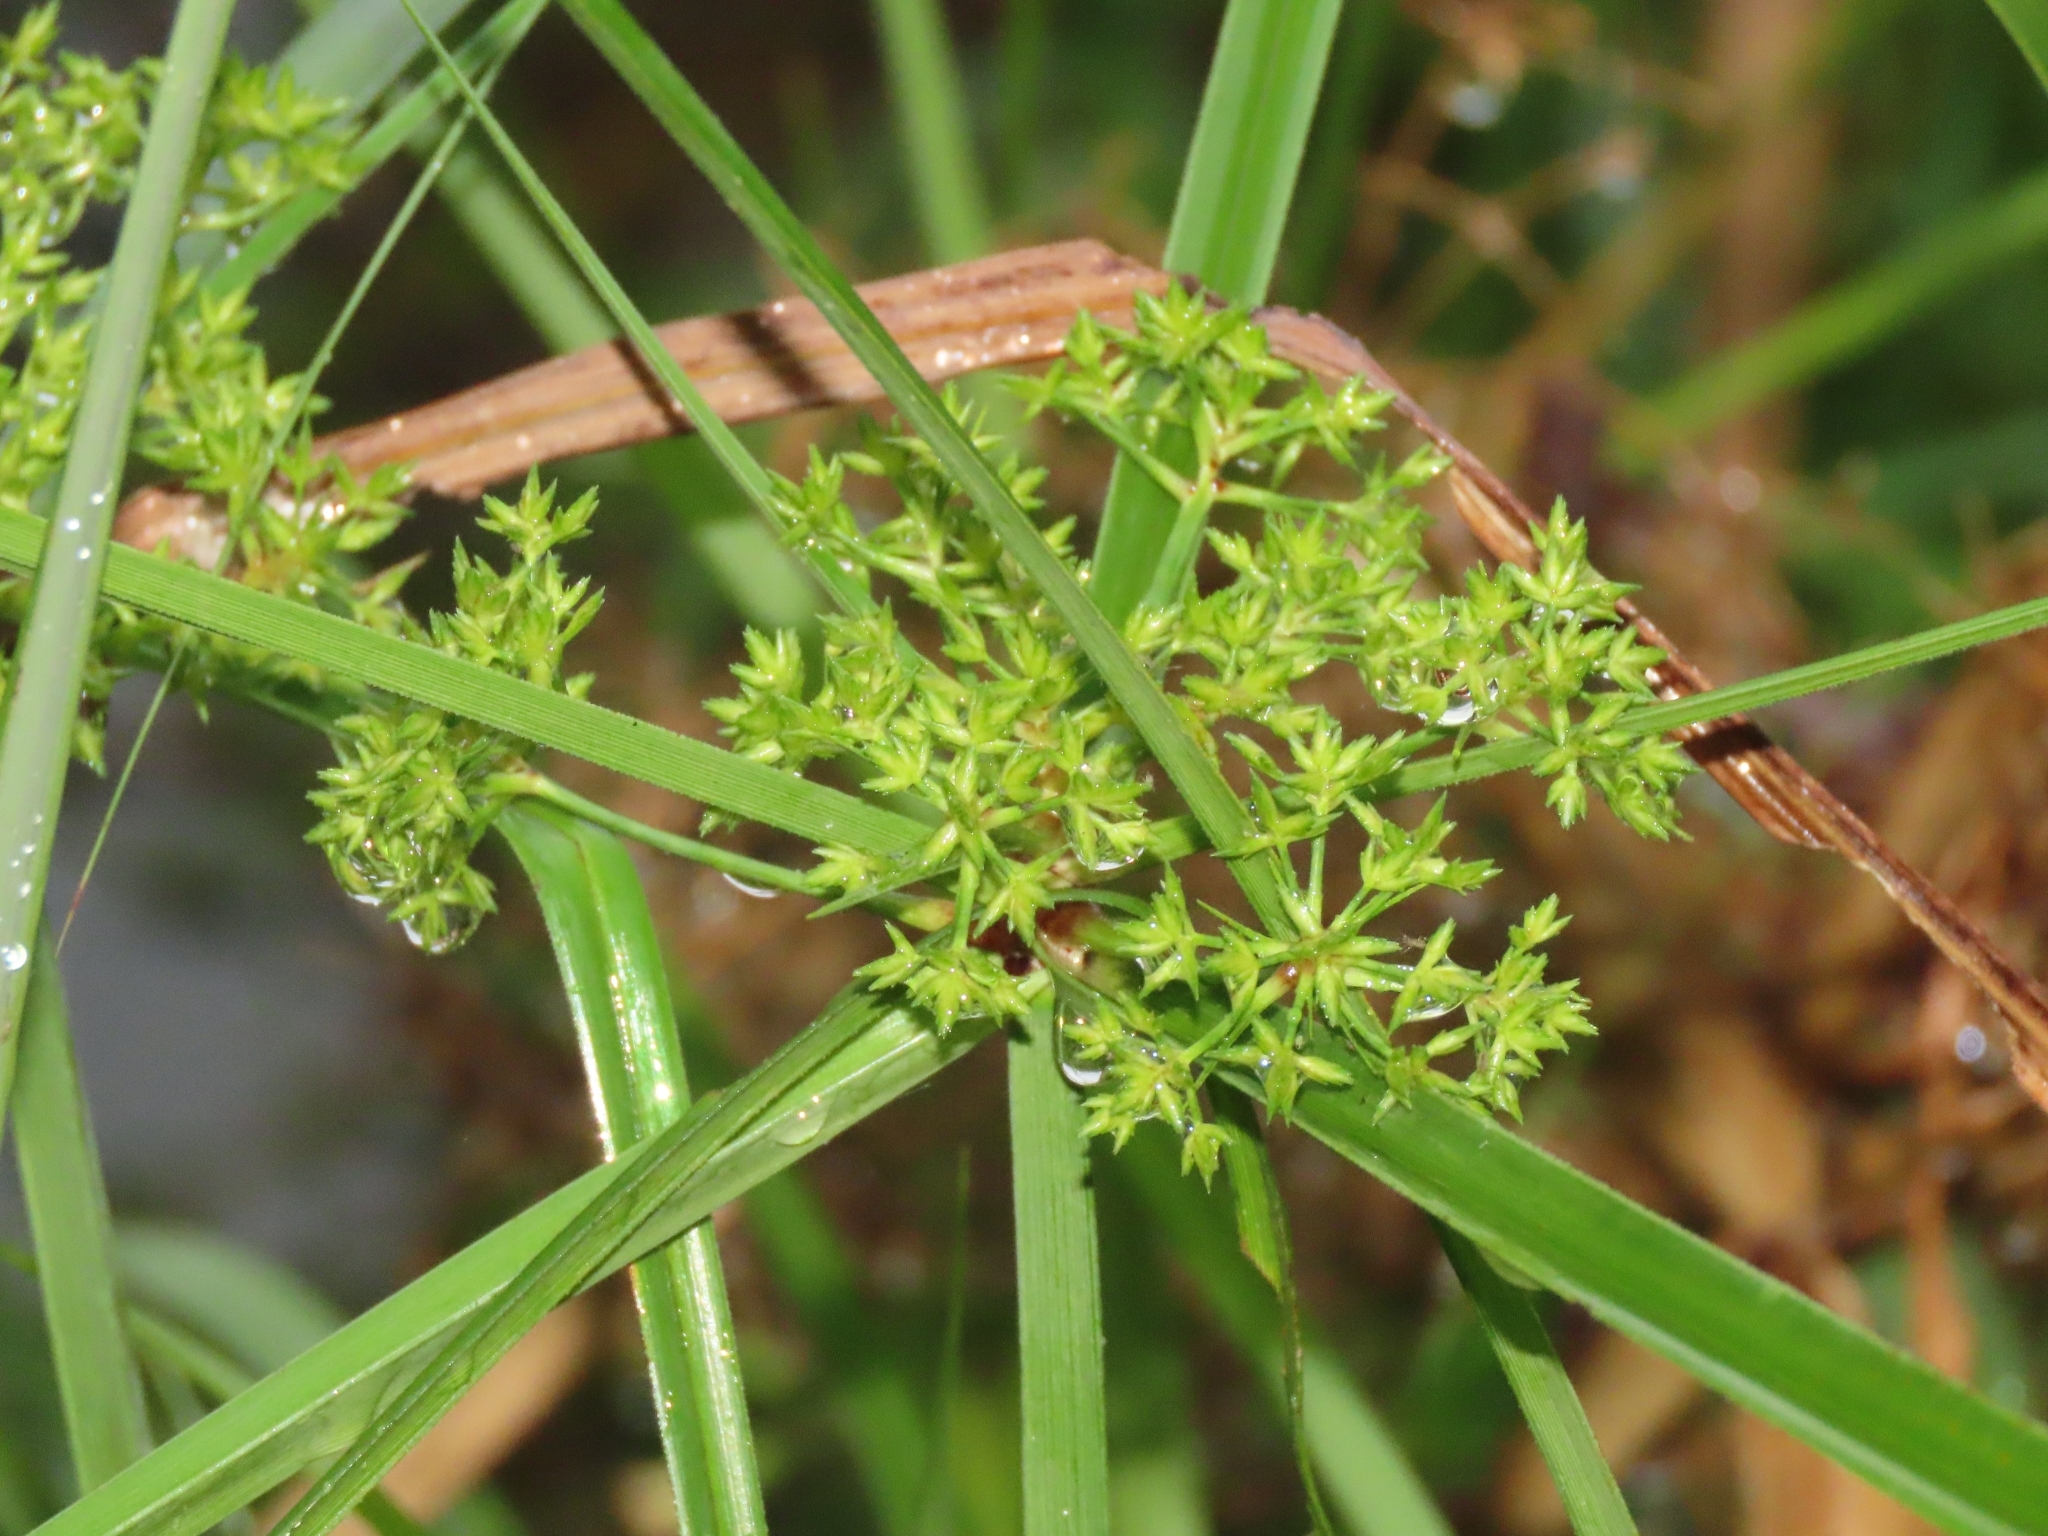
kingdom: Plantae
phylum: Tracheophyta
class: Liliopsida
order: Poales
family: Cyperaceae
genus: Cyperus
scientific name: Cyperus platystylis
